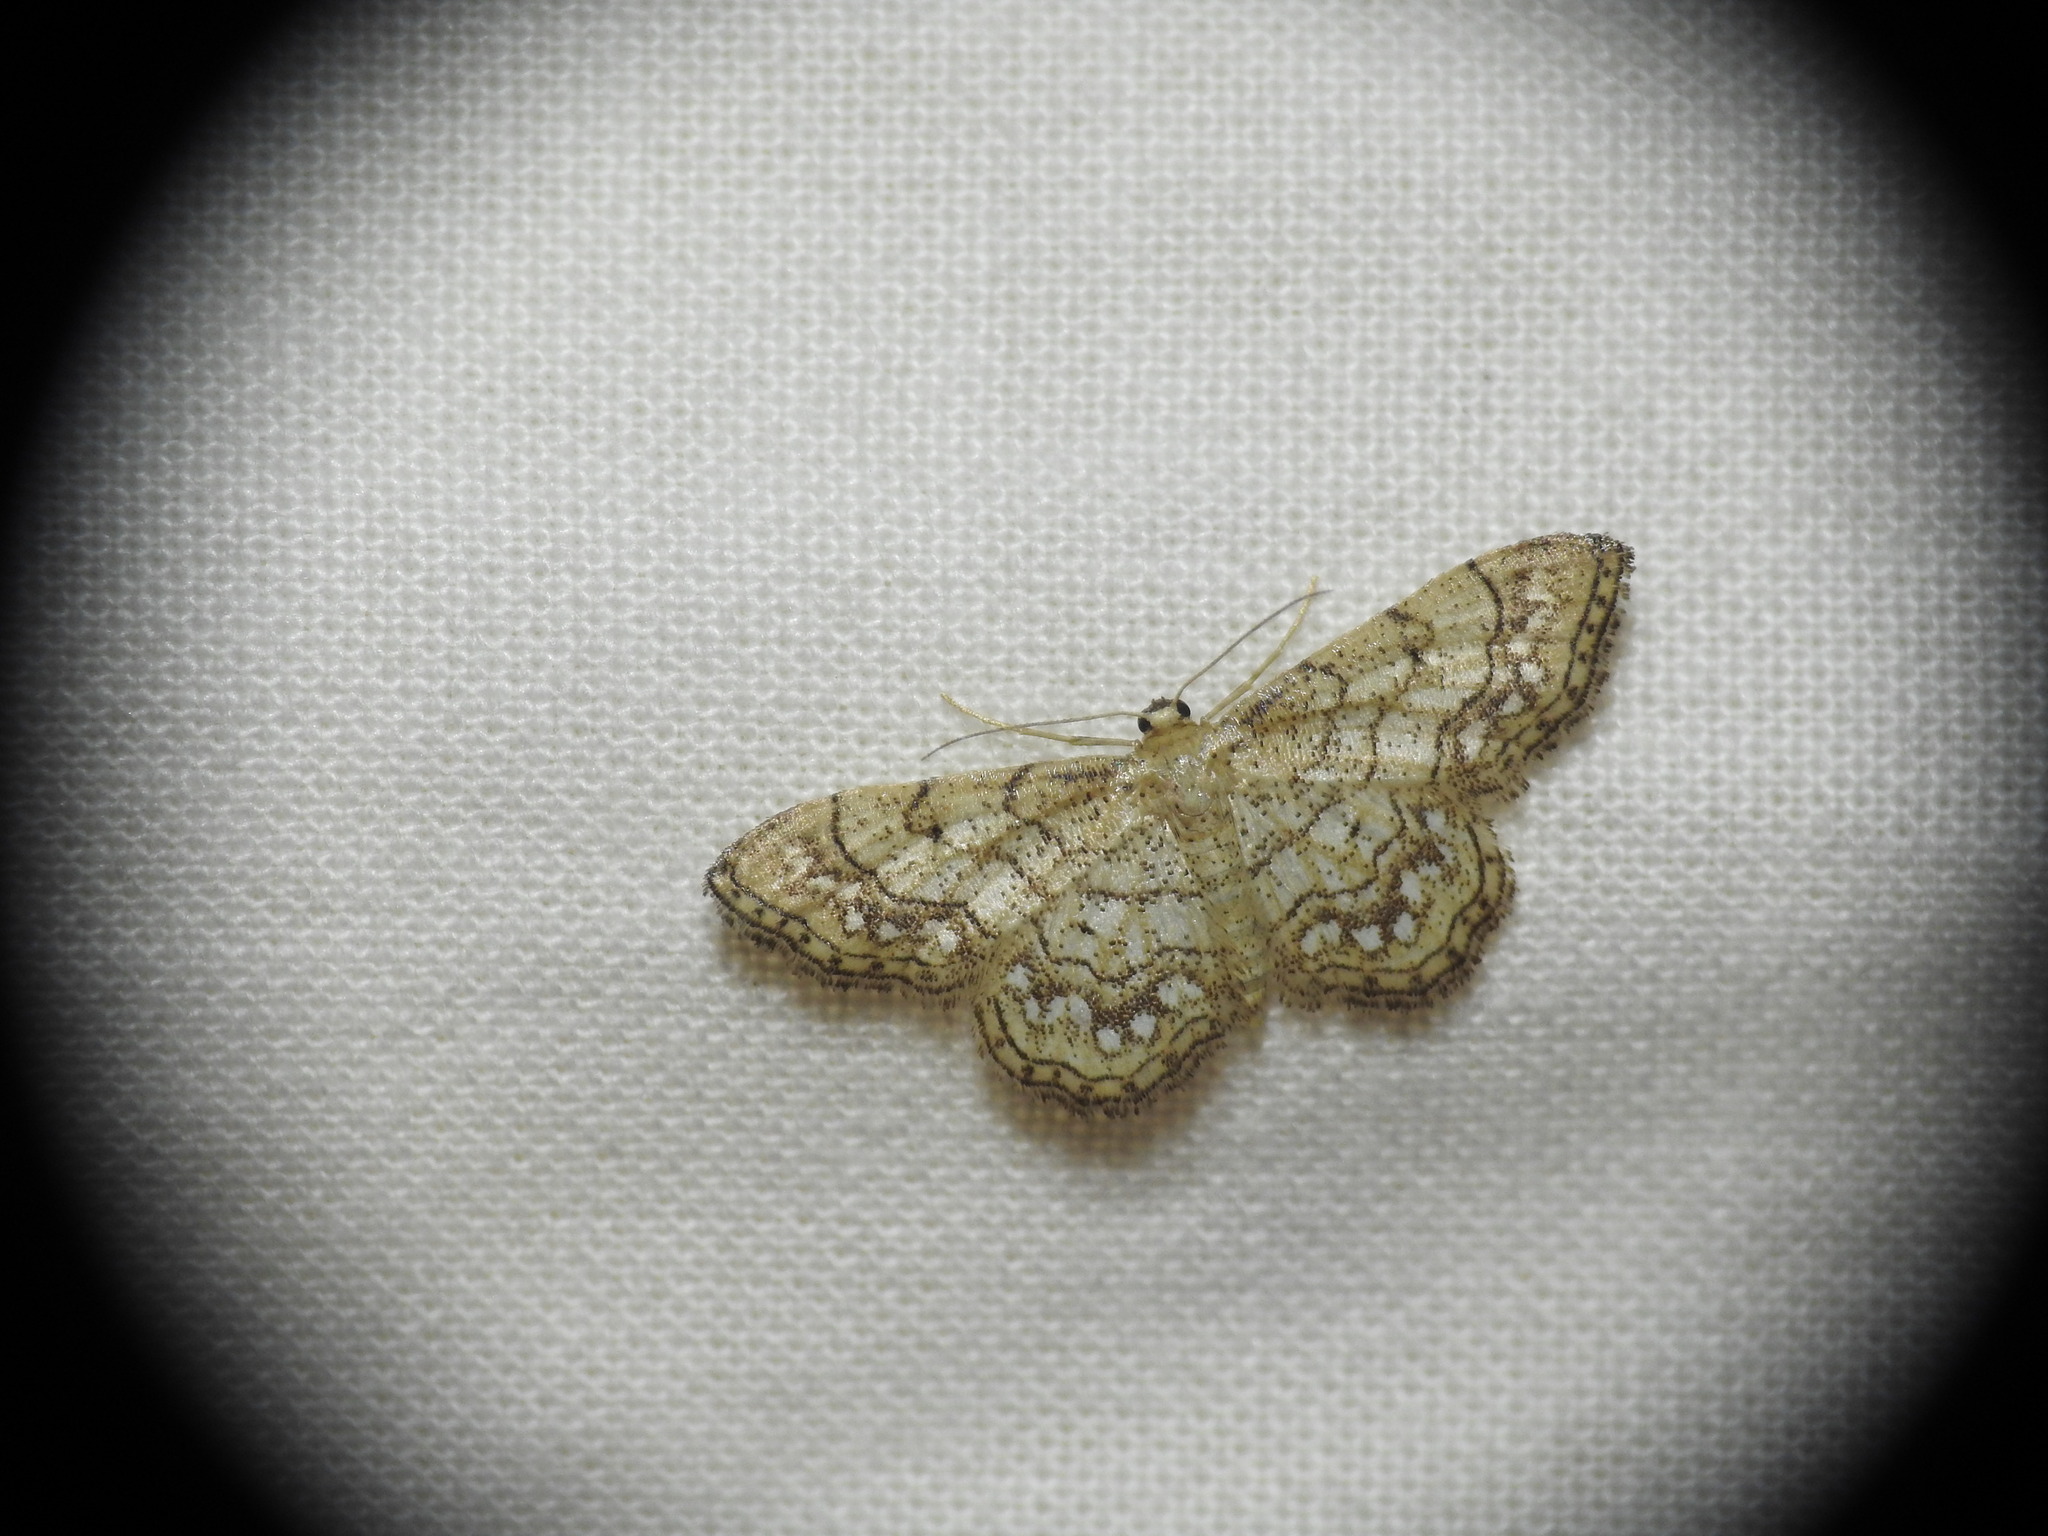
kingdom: Animalia
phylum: Arthropoda
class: Insecta
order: Lepidoptera
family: Geometridae
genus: Idaea
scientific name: Idaea moniliata
